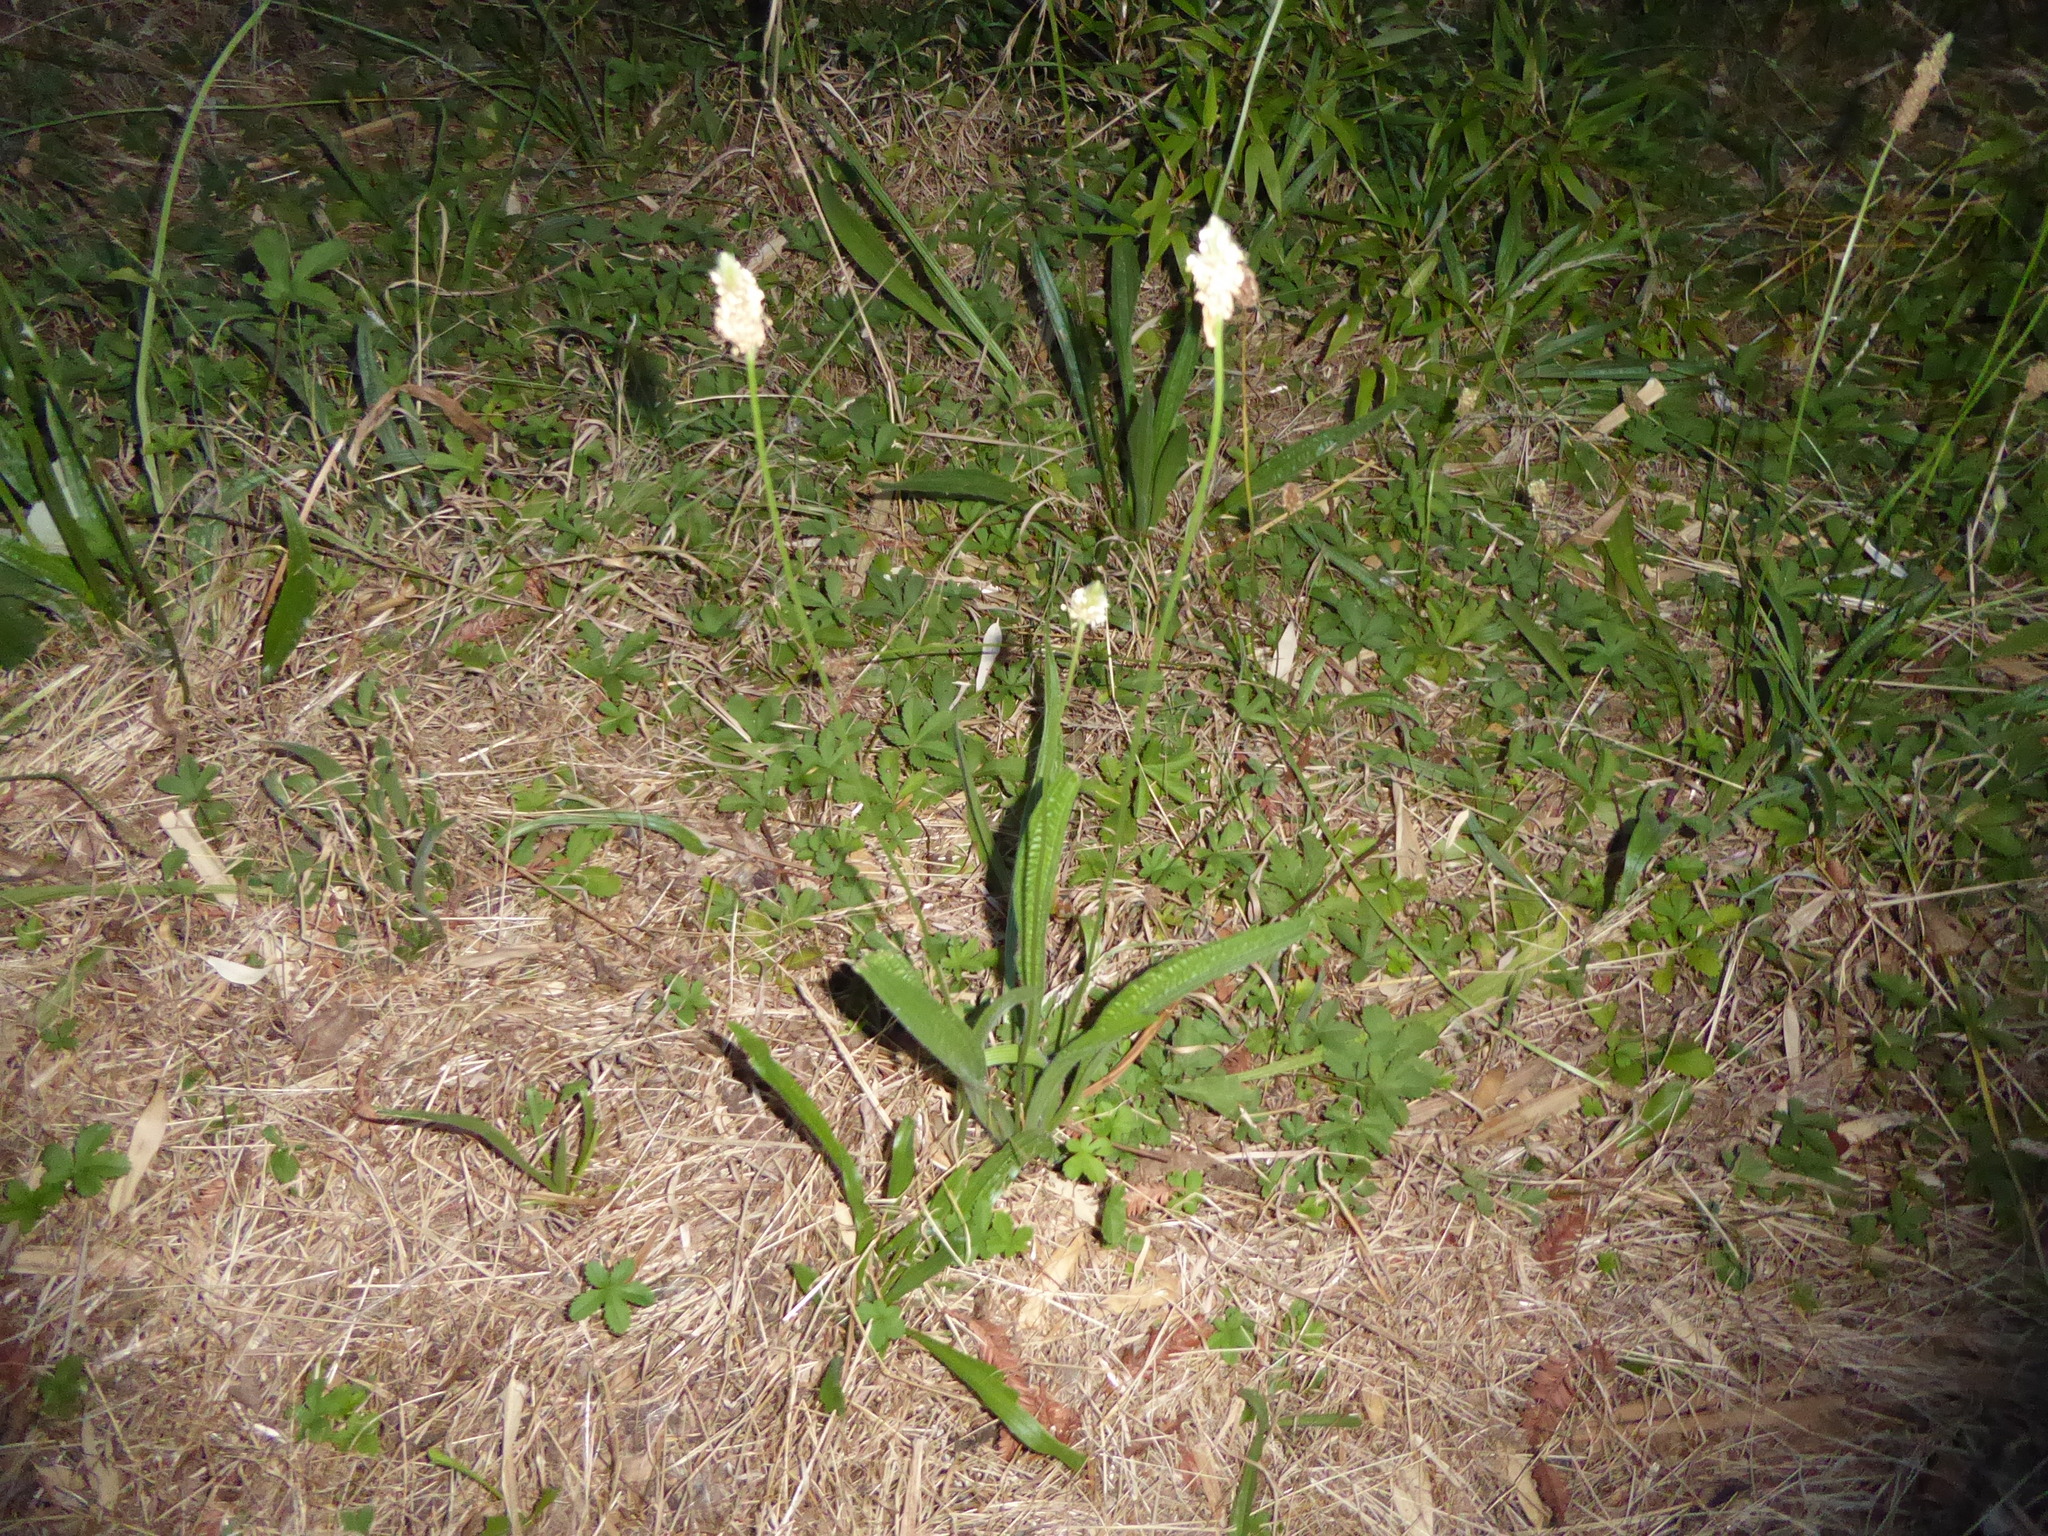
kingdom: Plantae
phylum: Tracheophyta
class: Magnoliopsida
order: Lamiales
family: Plantaginaceae
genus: Plantago
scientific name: Plantago lanceolata
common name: Ribwort plantain
